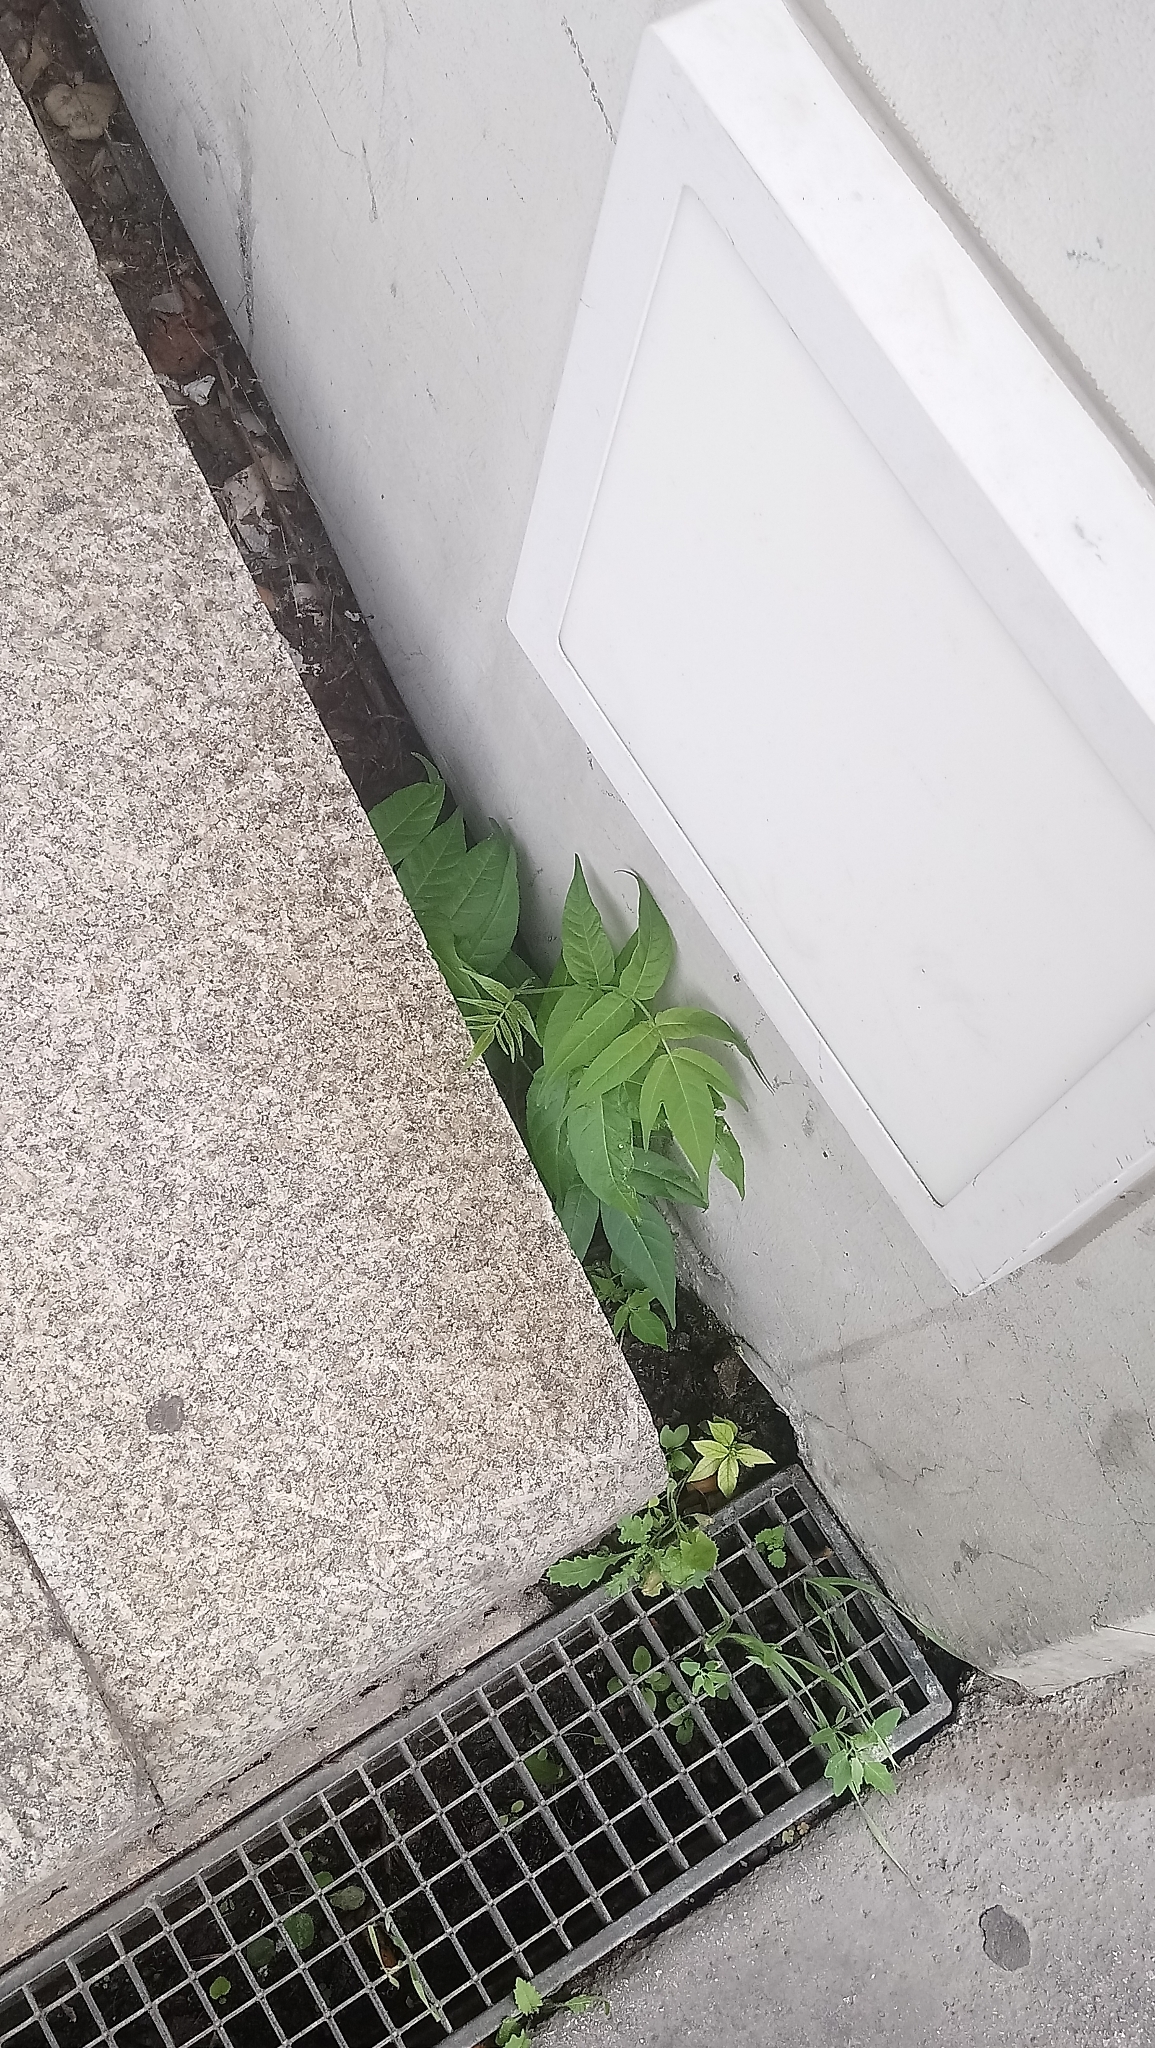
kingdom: Plantae
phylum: Tracheophyta
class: Magnoliopsida
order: Sapindales
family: Simaroubaceae
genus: Ailanthus
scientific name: Ailanthus altissima
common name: Tree-of-heaven
